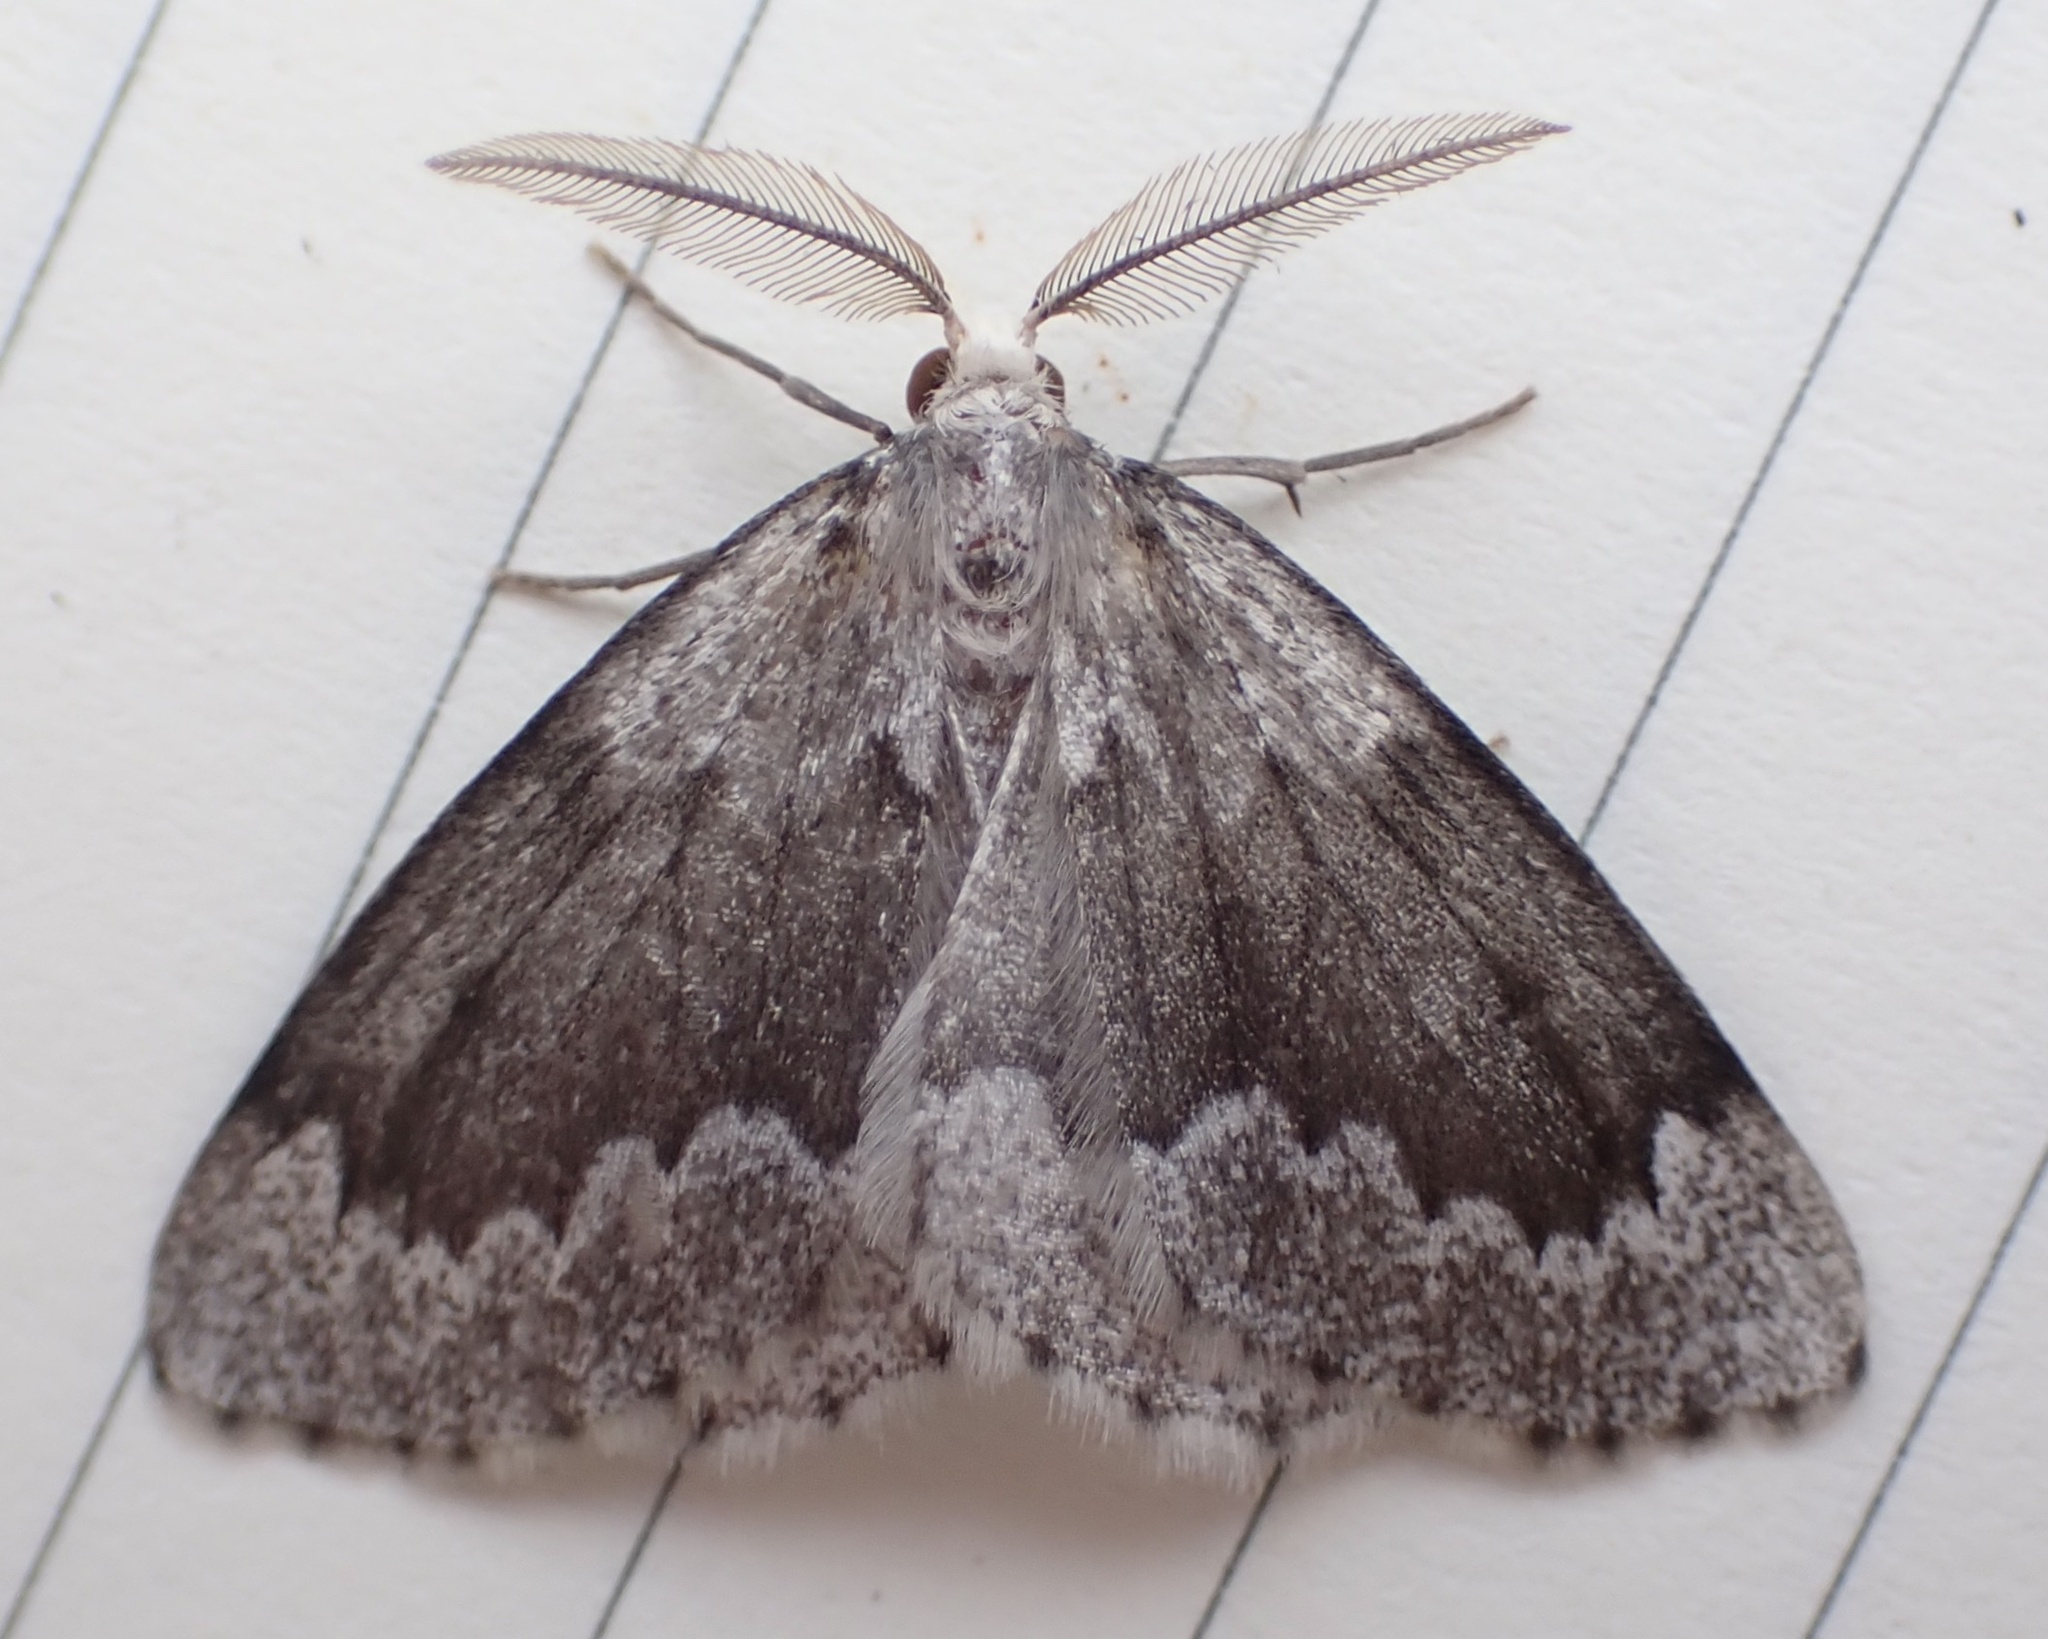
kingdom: Animalia
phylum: Arthropoda
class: Insecta
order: Lepidoptera
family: Geometridae
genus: Nepytia
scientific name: Nepytia canosaria
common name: False hemlock looper
